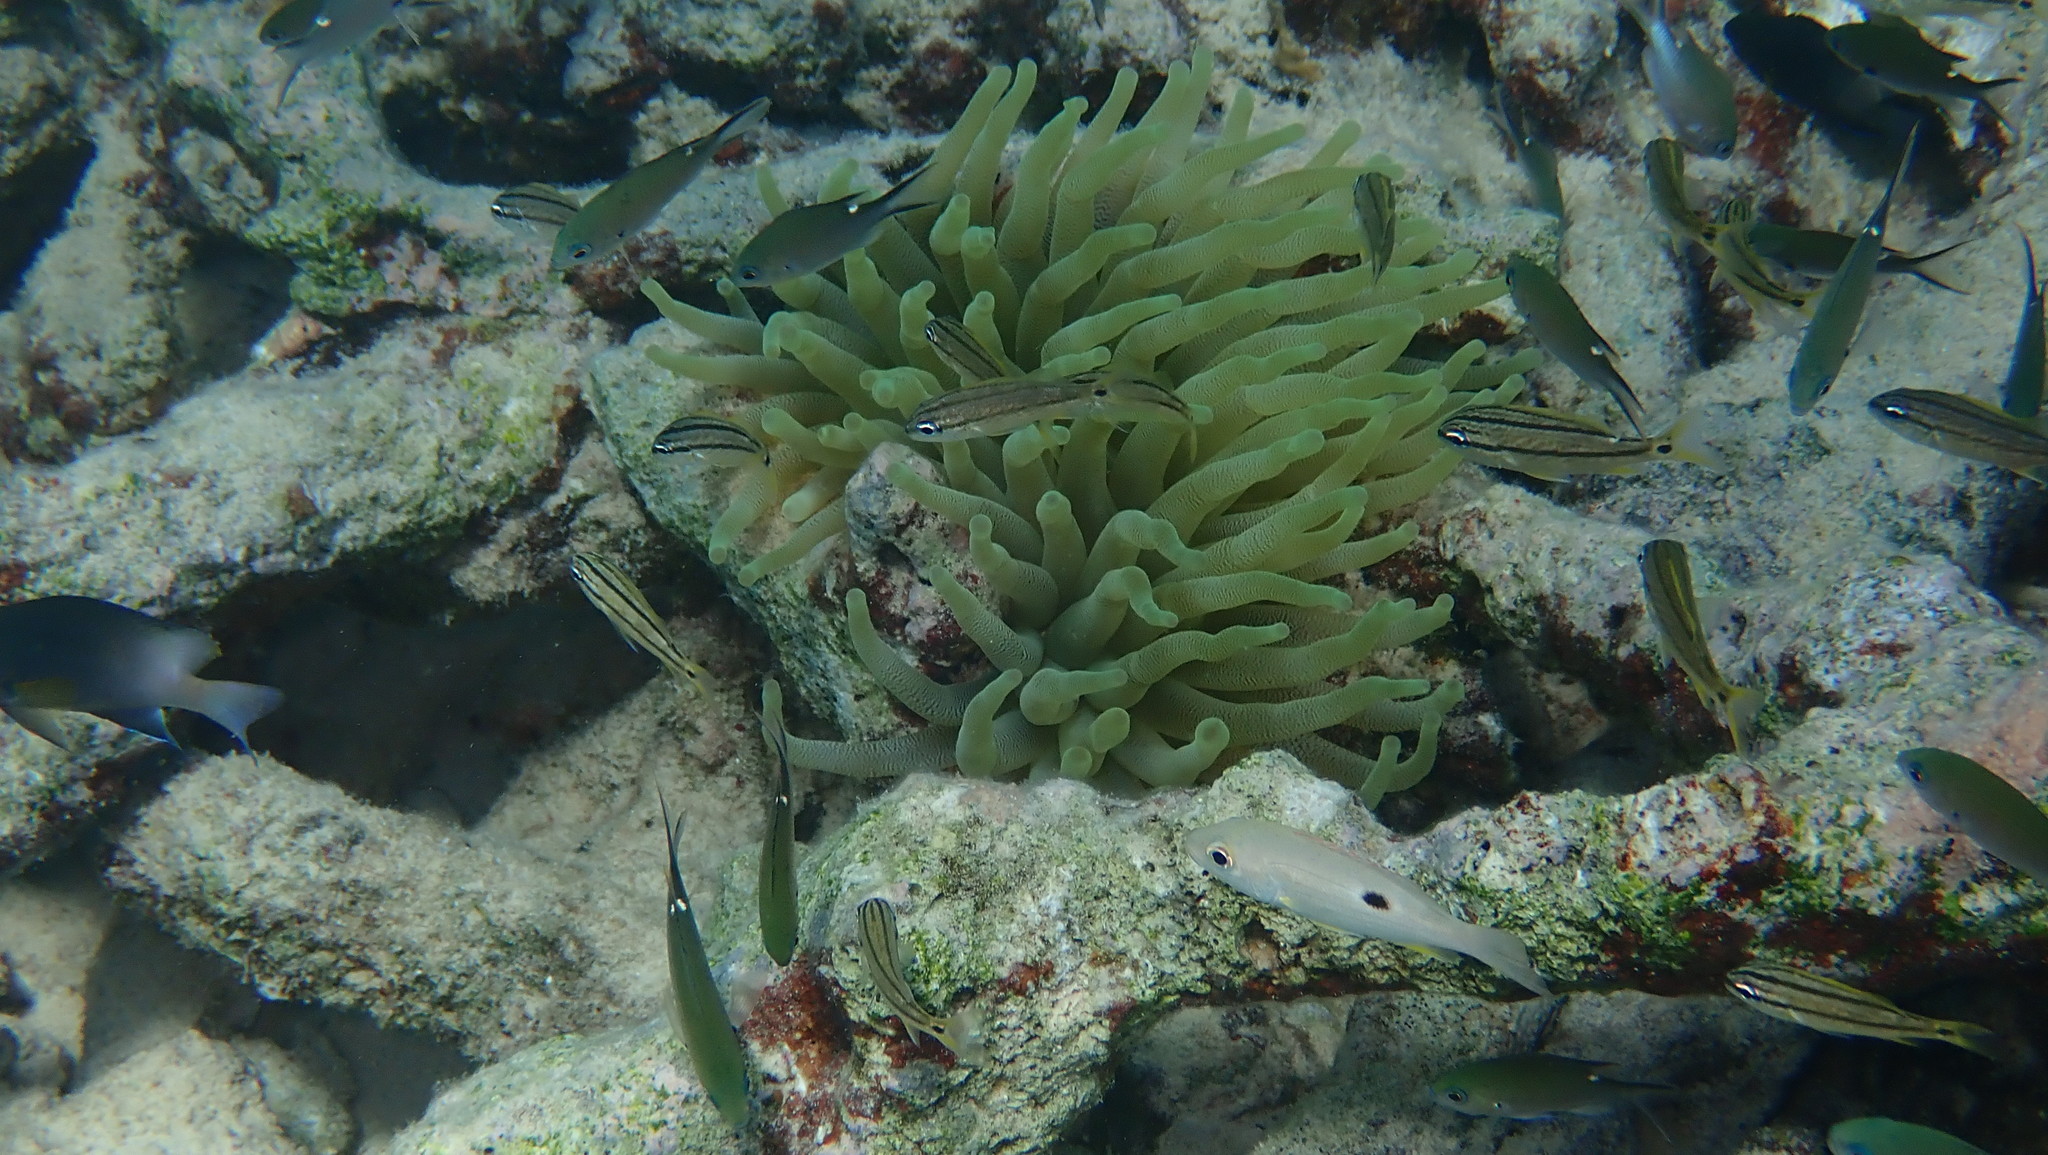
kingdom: Animalia
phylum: Cnidaria
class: Anthozoa
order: Actiniaria
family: Actiniidae
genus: Condylactis
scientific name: Condylactis gigantea
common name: Giant caribbean anemone
